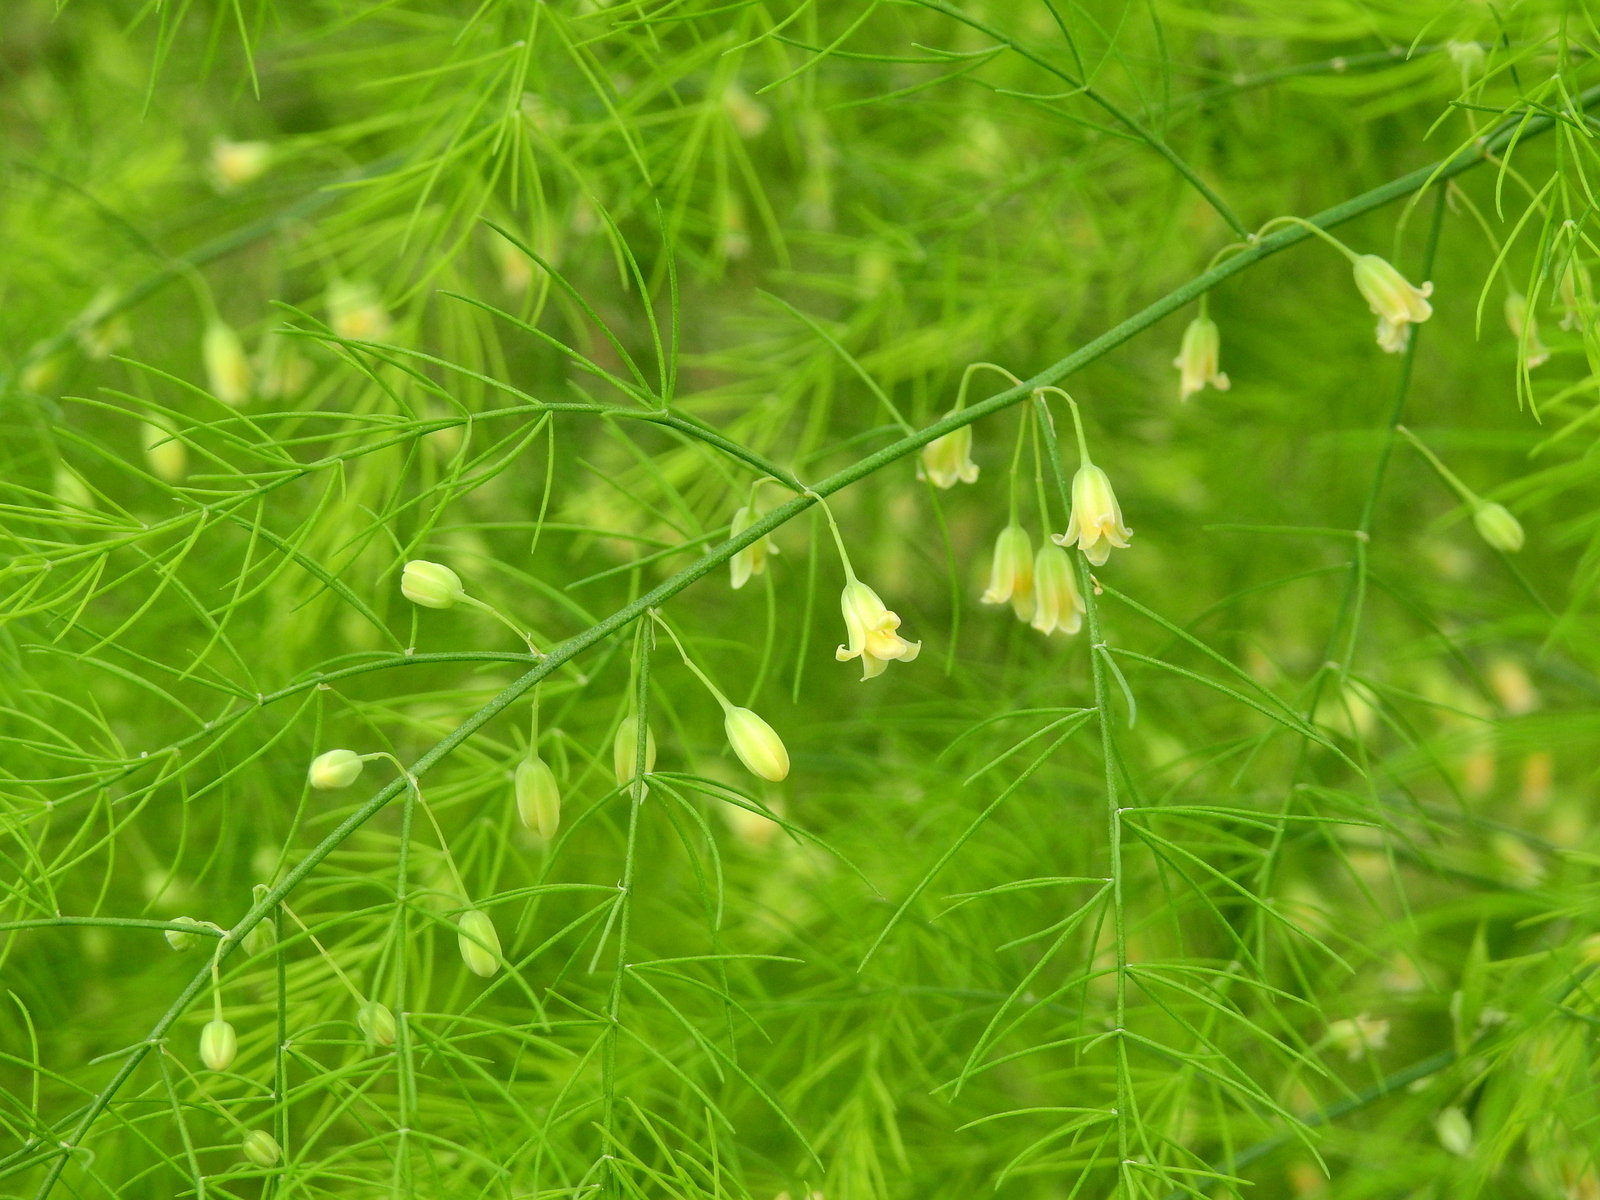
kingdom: Plantae
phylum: Tracheophyta
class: Liliopsida
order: Asparagales
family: Asparagaceae
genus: Asparagus
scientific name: Asparagus officinalis
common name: Garden asparagus
